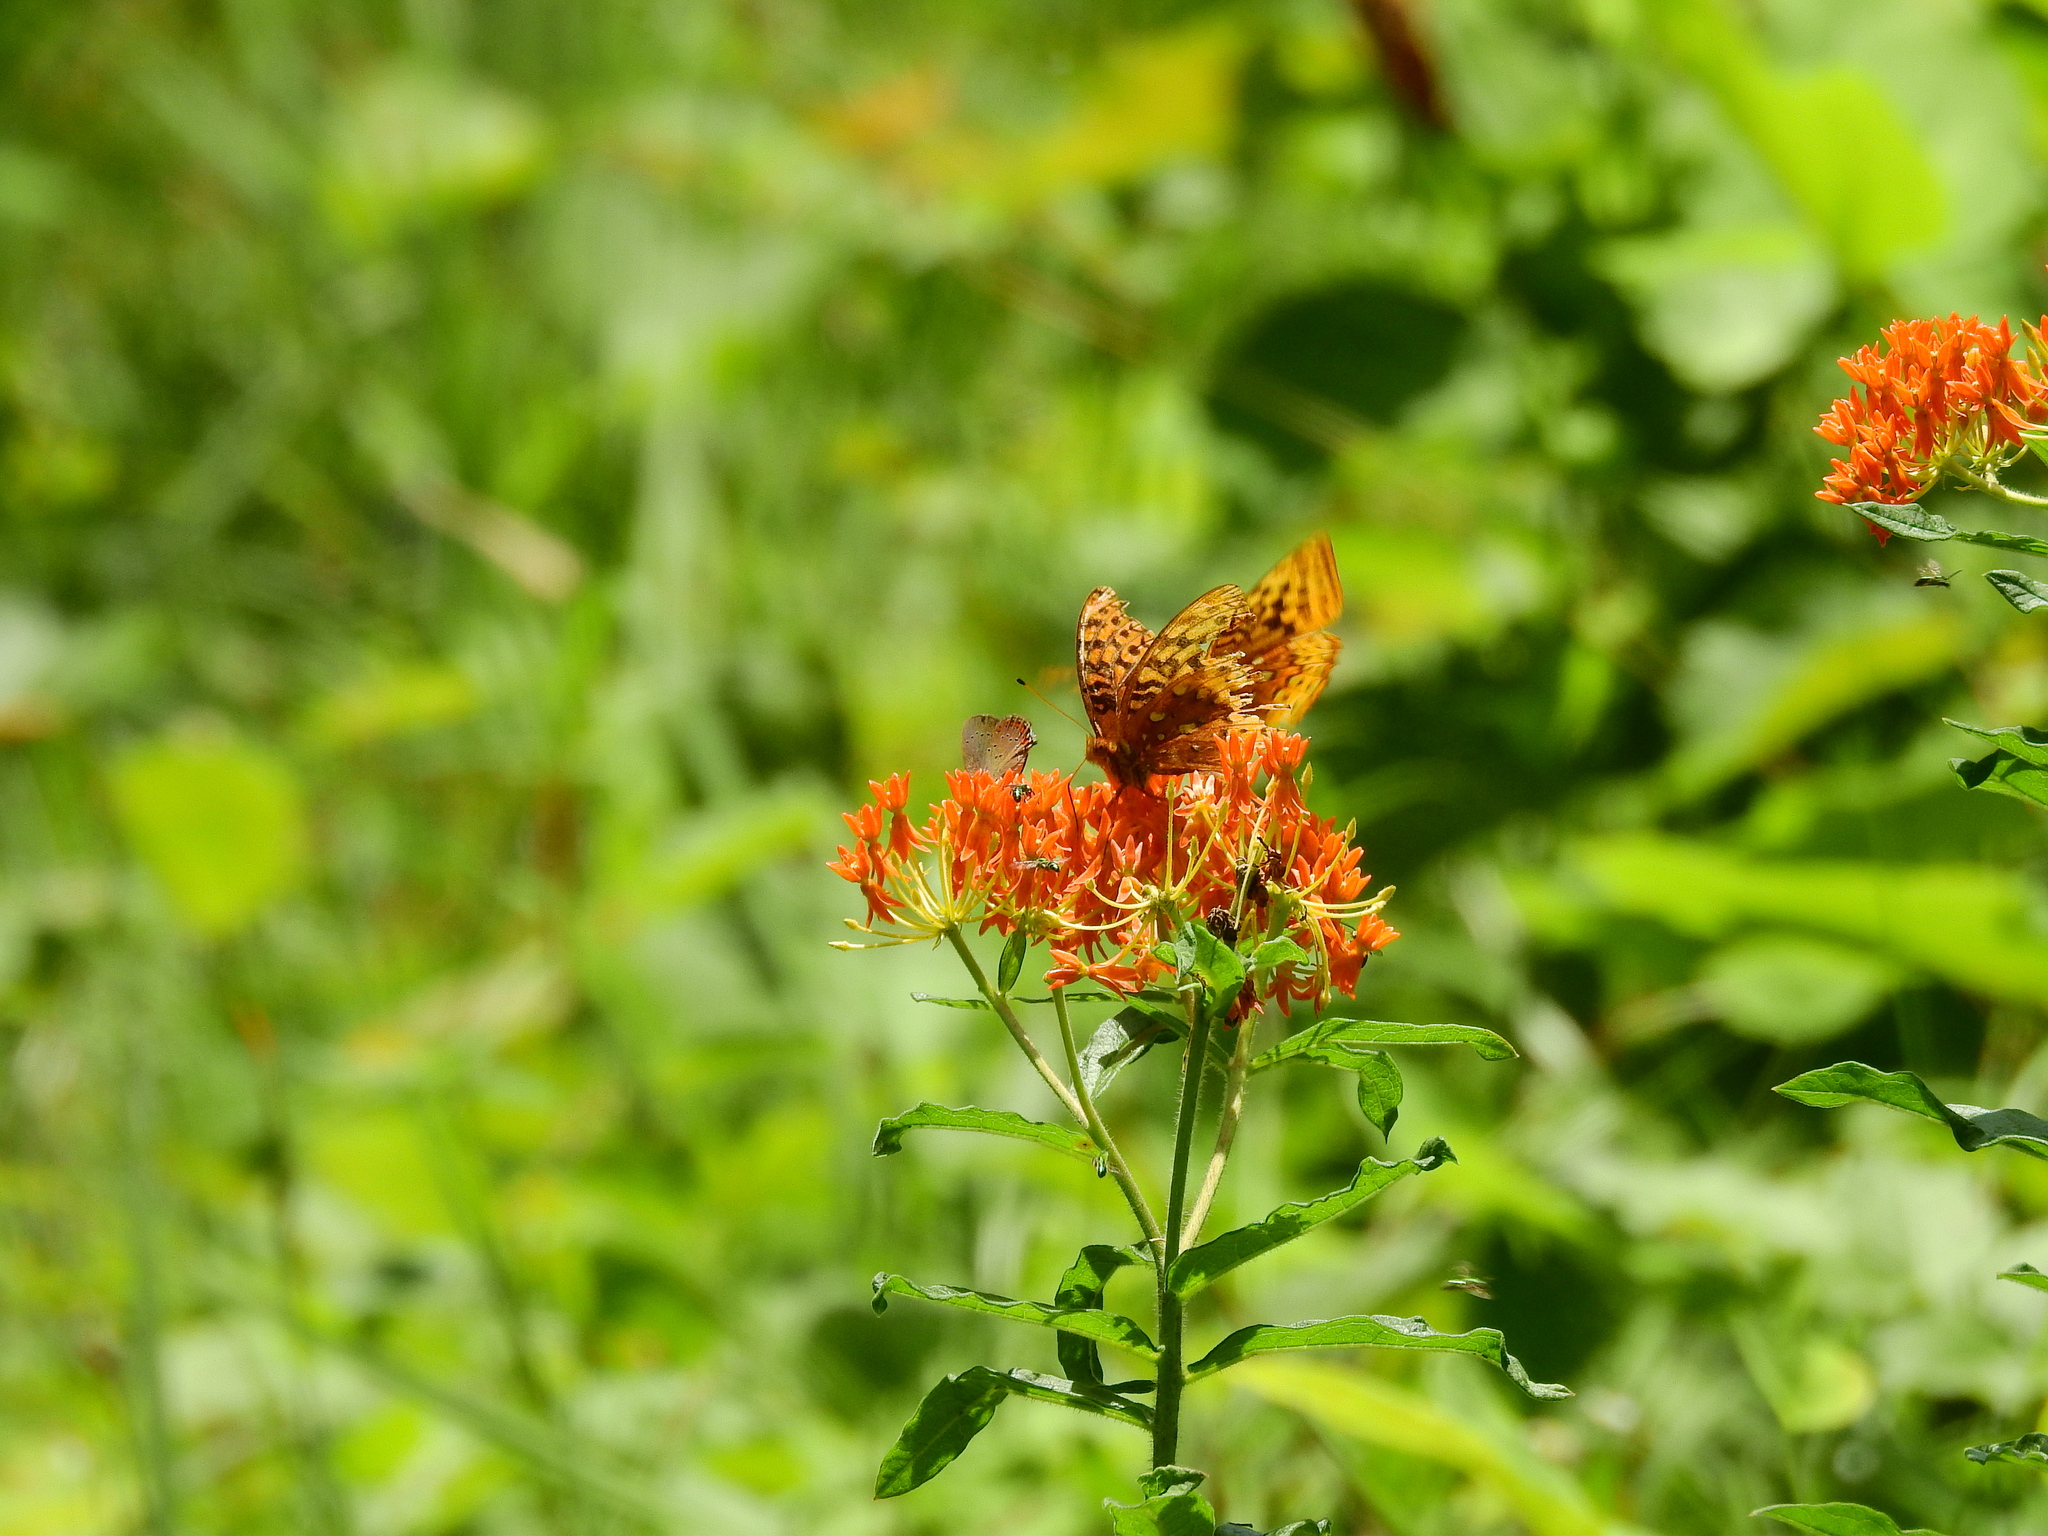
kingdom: Animalia
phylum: Arthropoda
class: Insecta
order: Lepidoptera
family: Nymphalidae
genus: Speyeria
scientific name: Speyeria cybele
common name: Great spangled fritillary
